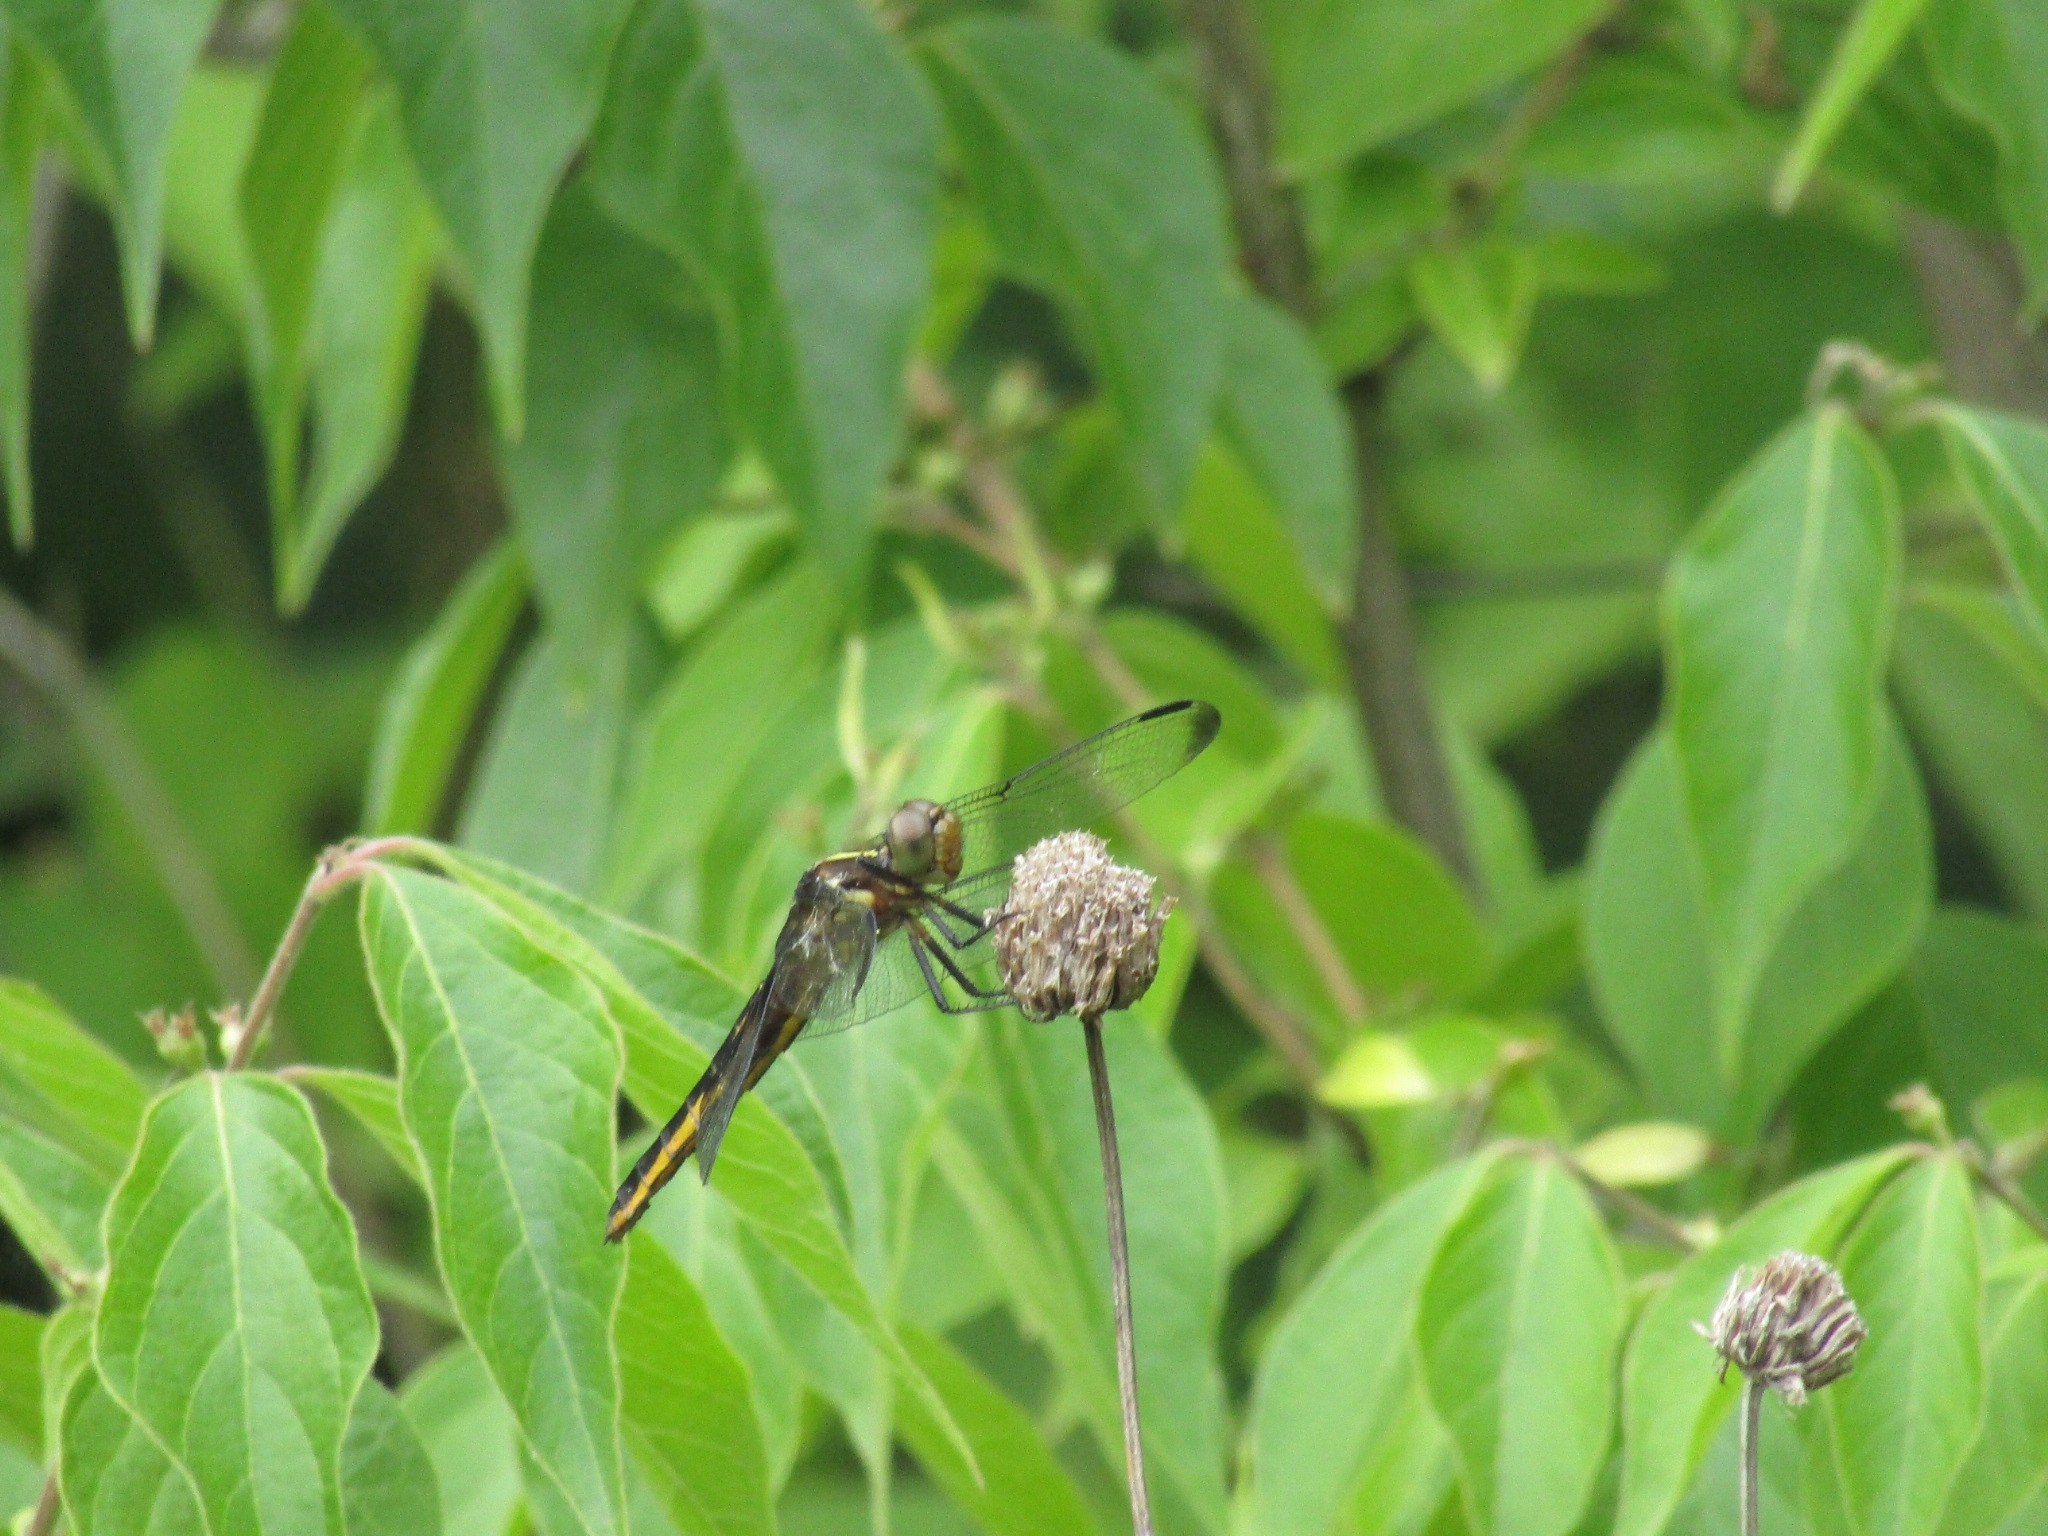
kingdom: Animalia
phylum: Arthropoda
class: Insecta
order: Odonata
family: Libellulidae
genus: Libellula
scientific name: Libellula luctuosa
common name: Widow skimmer
